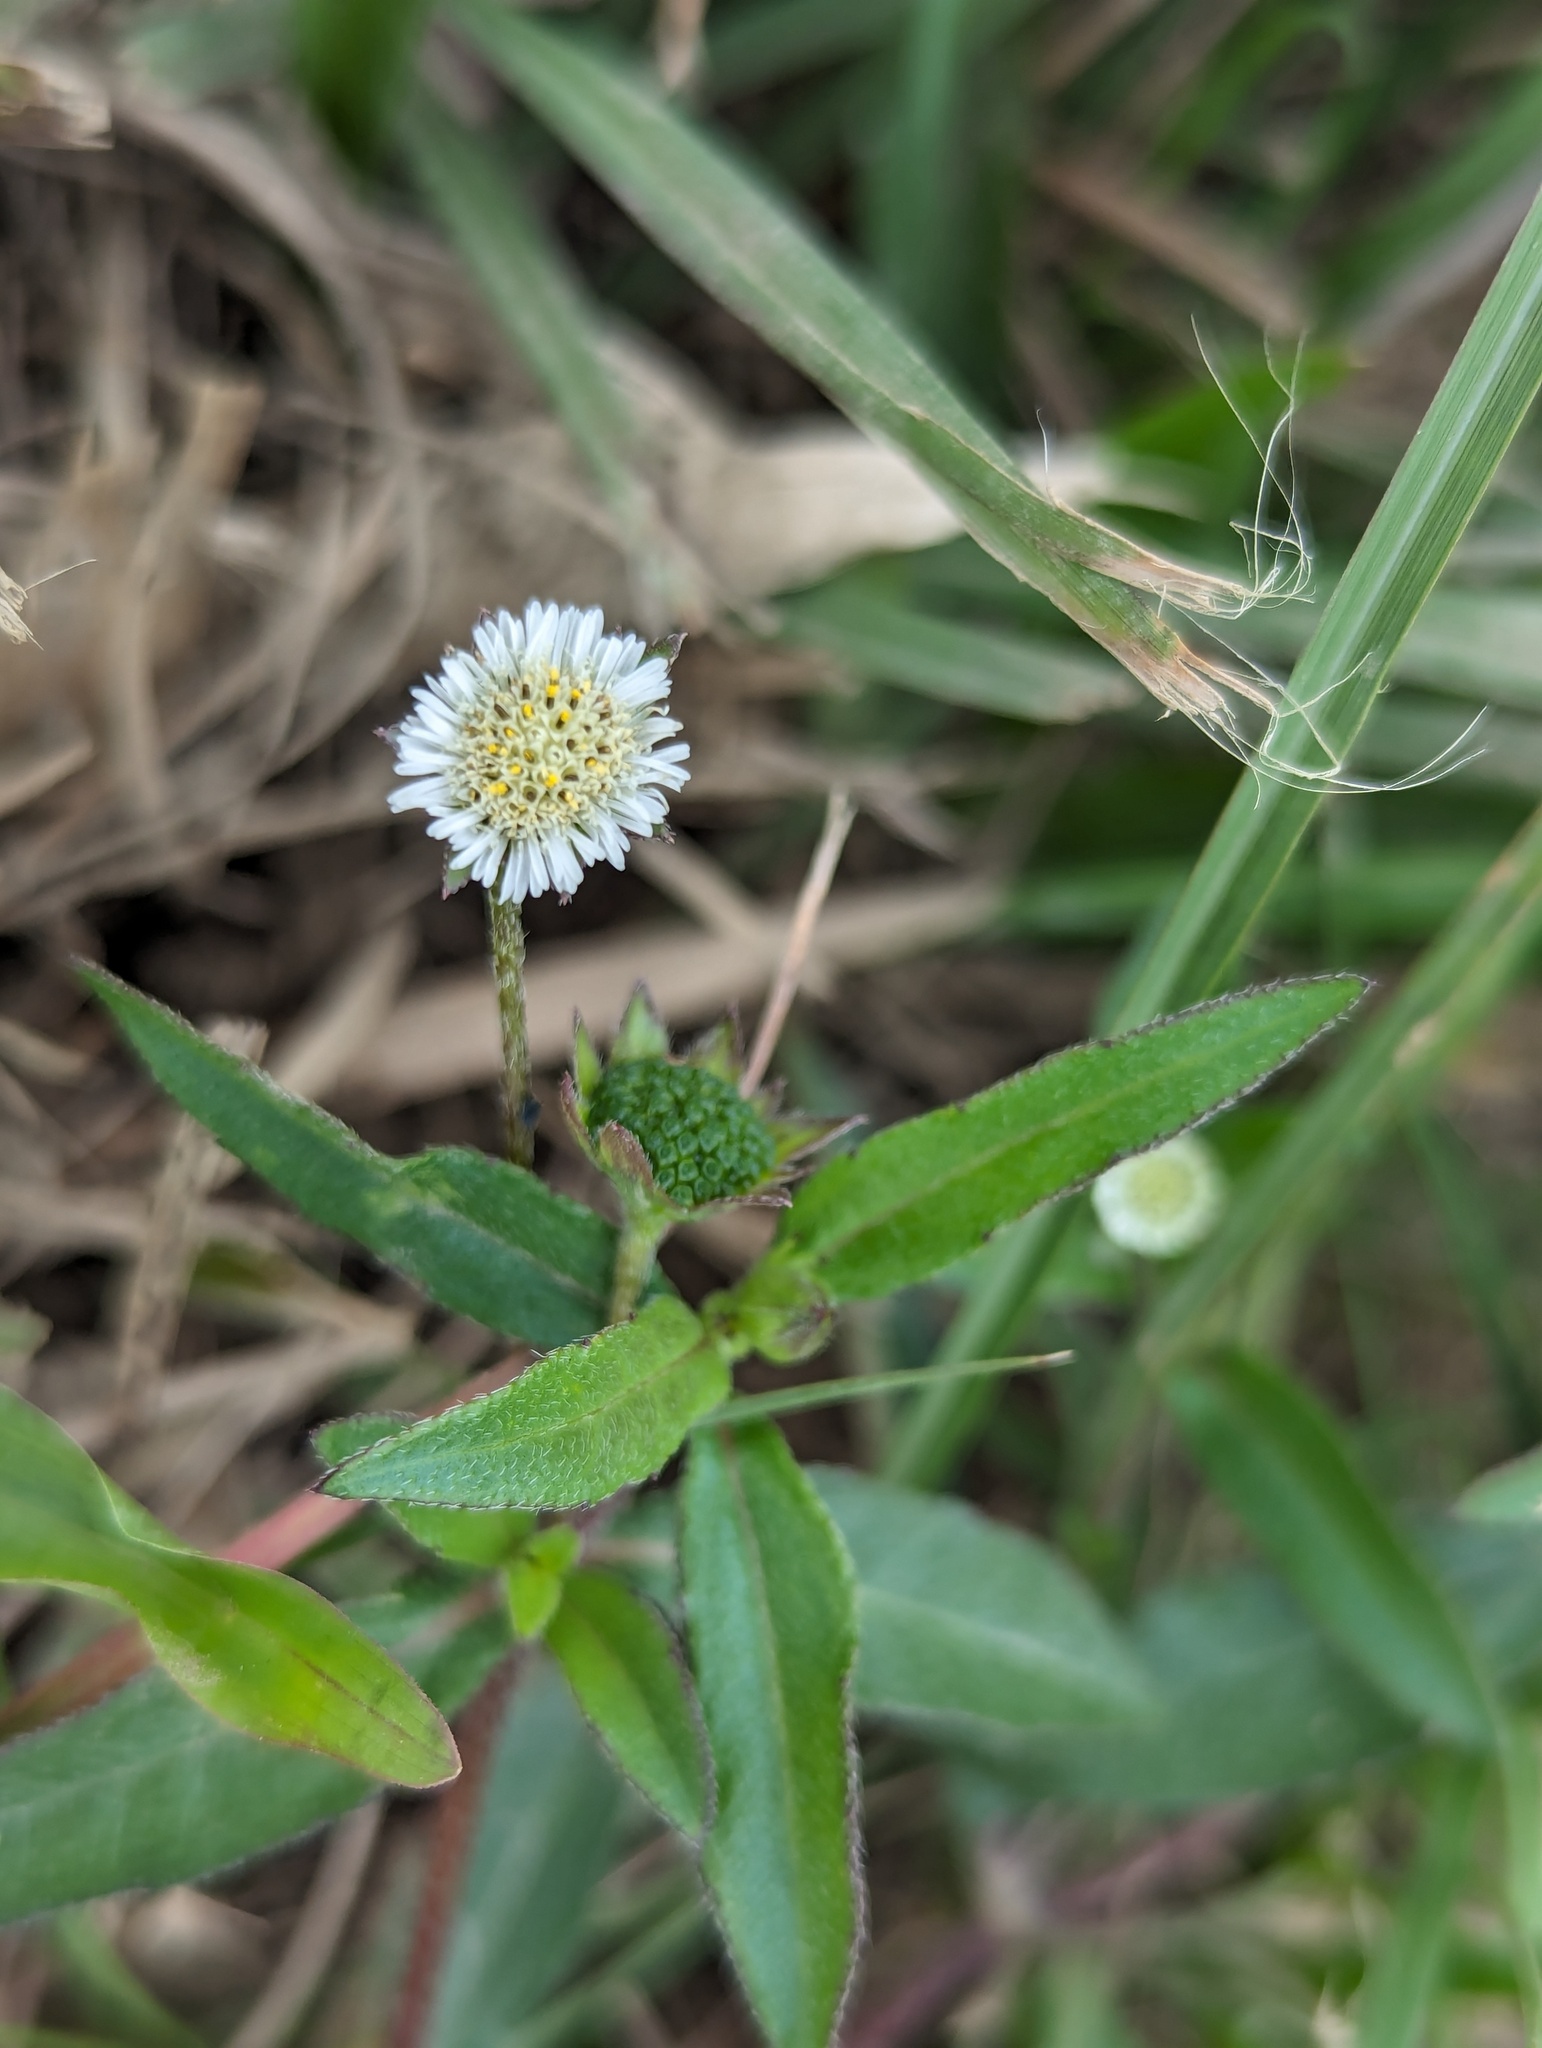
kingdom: Plantae
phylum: Tracheophyta
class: Magnoliopsida
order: Asterales
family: Asteraceae
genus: Eclipta
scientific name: Eclipta prostrata
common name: False daisy
